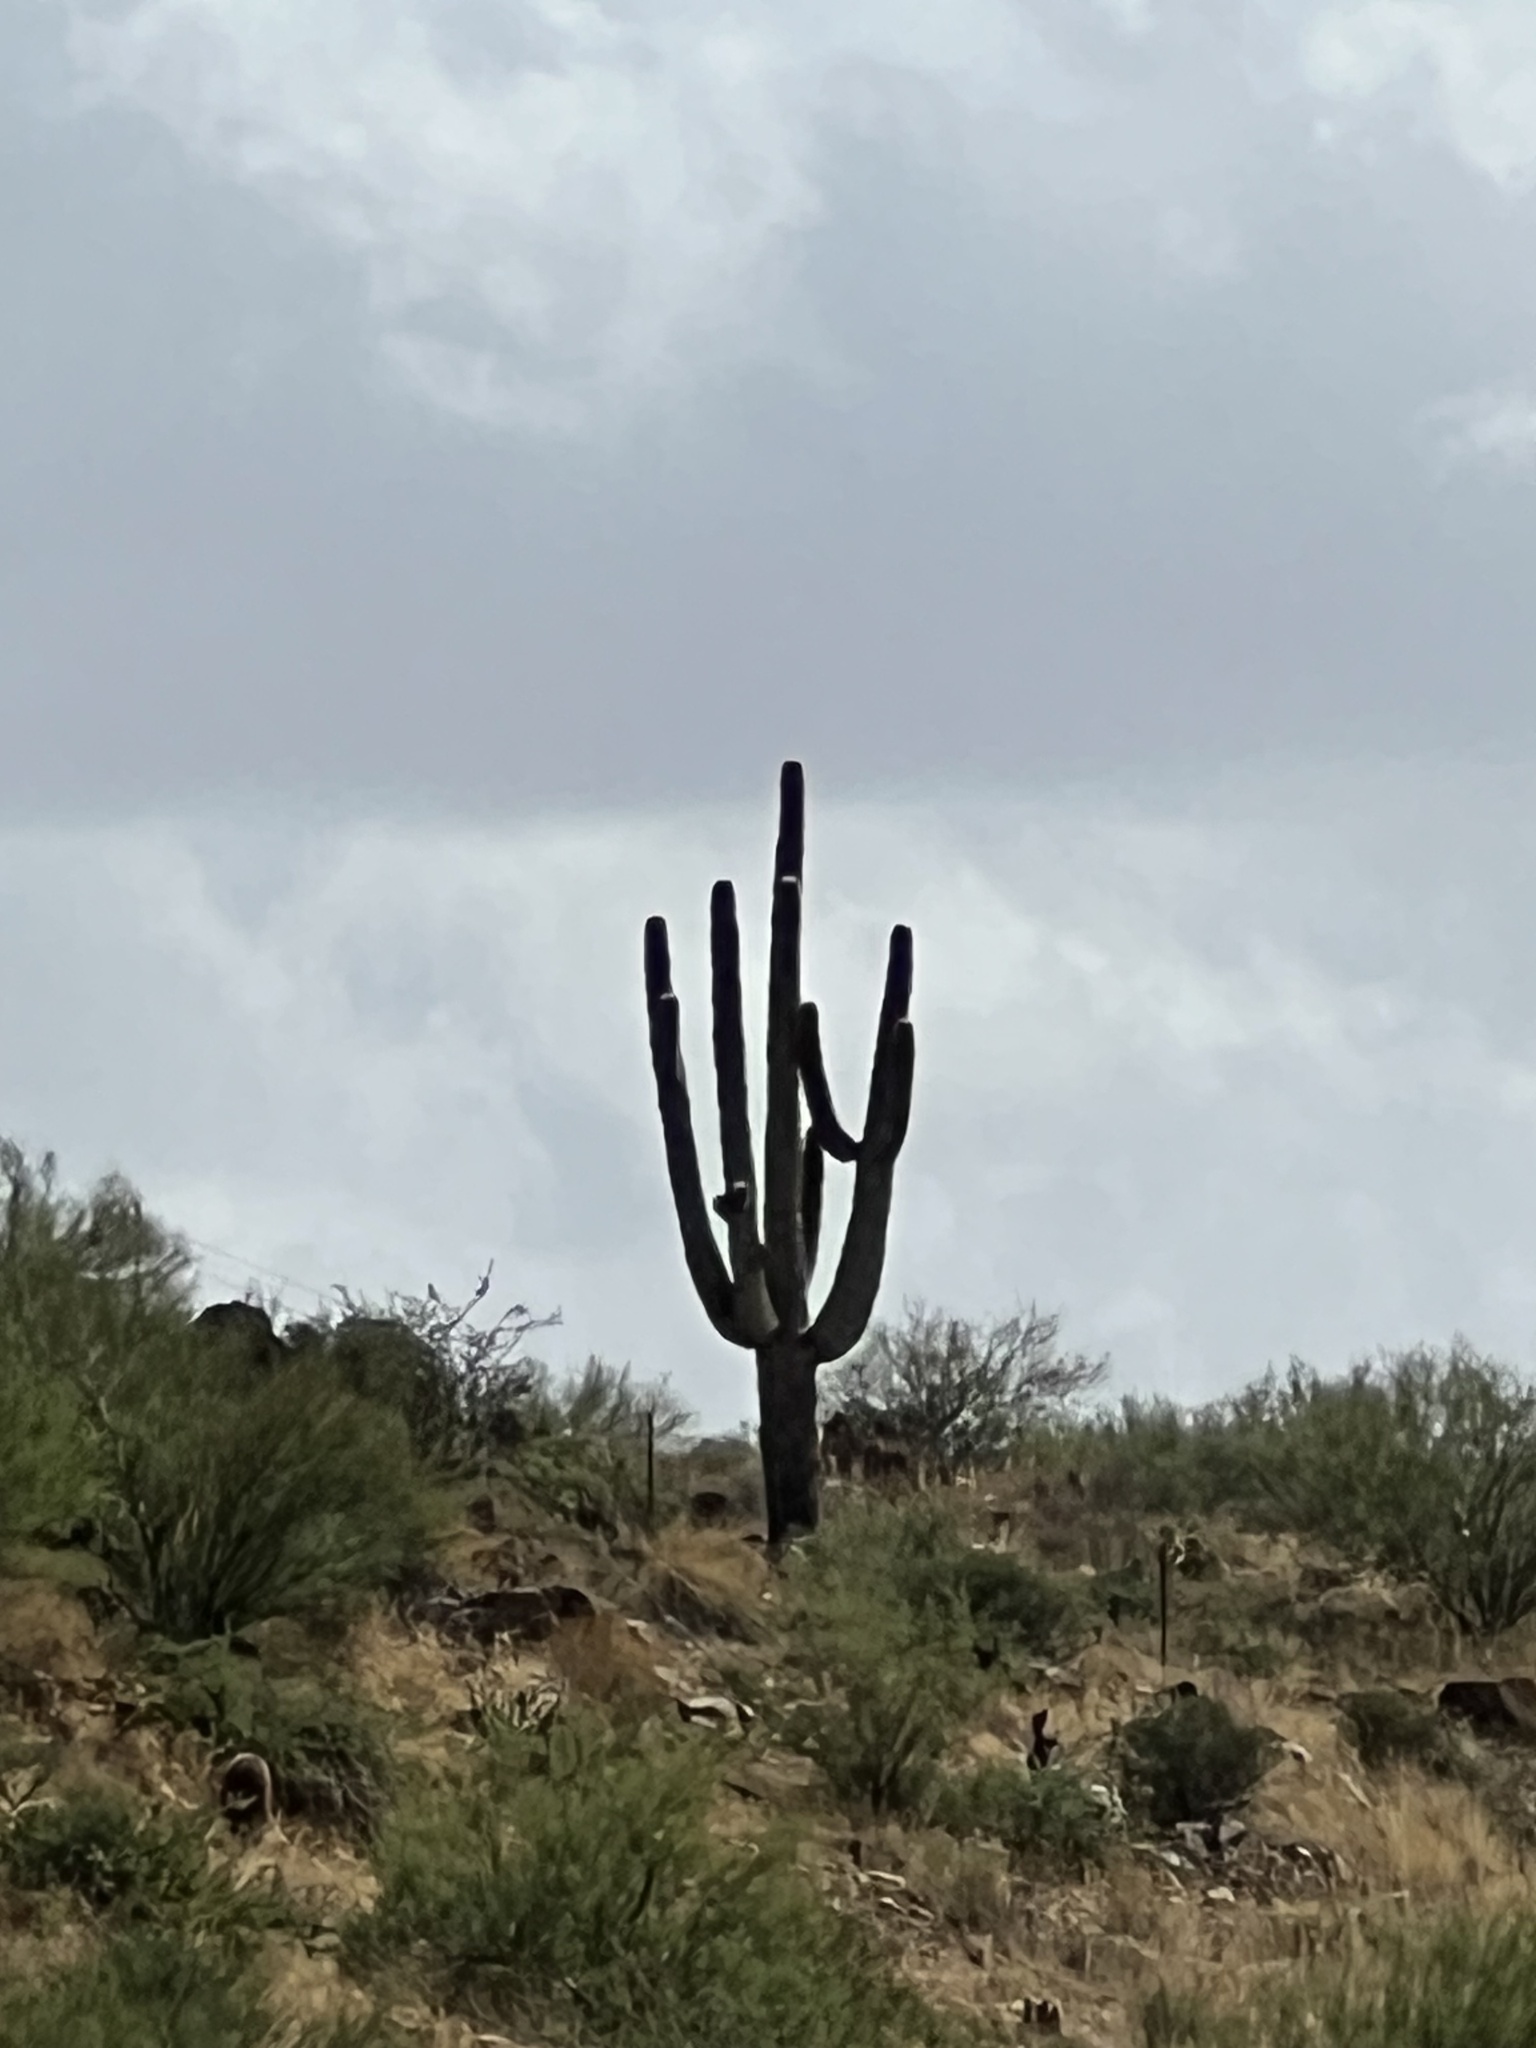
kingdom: Plantae
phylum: Tracheophyta
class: Magnoliopsida
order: Caryophyllales
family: Cactaceae
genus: Carnegiea
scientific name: Carnegiea gigantea
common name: Saguaro
